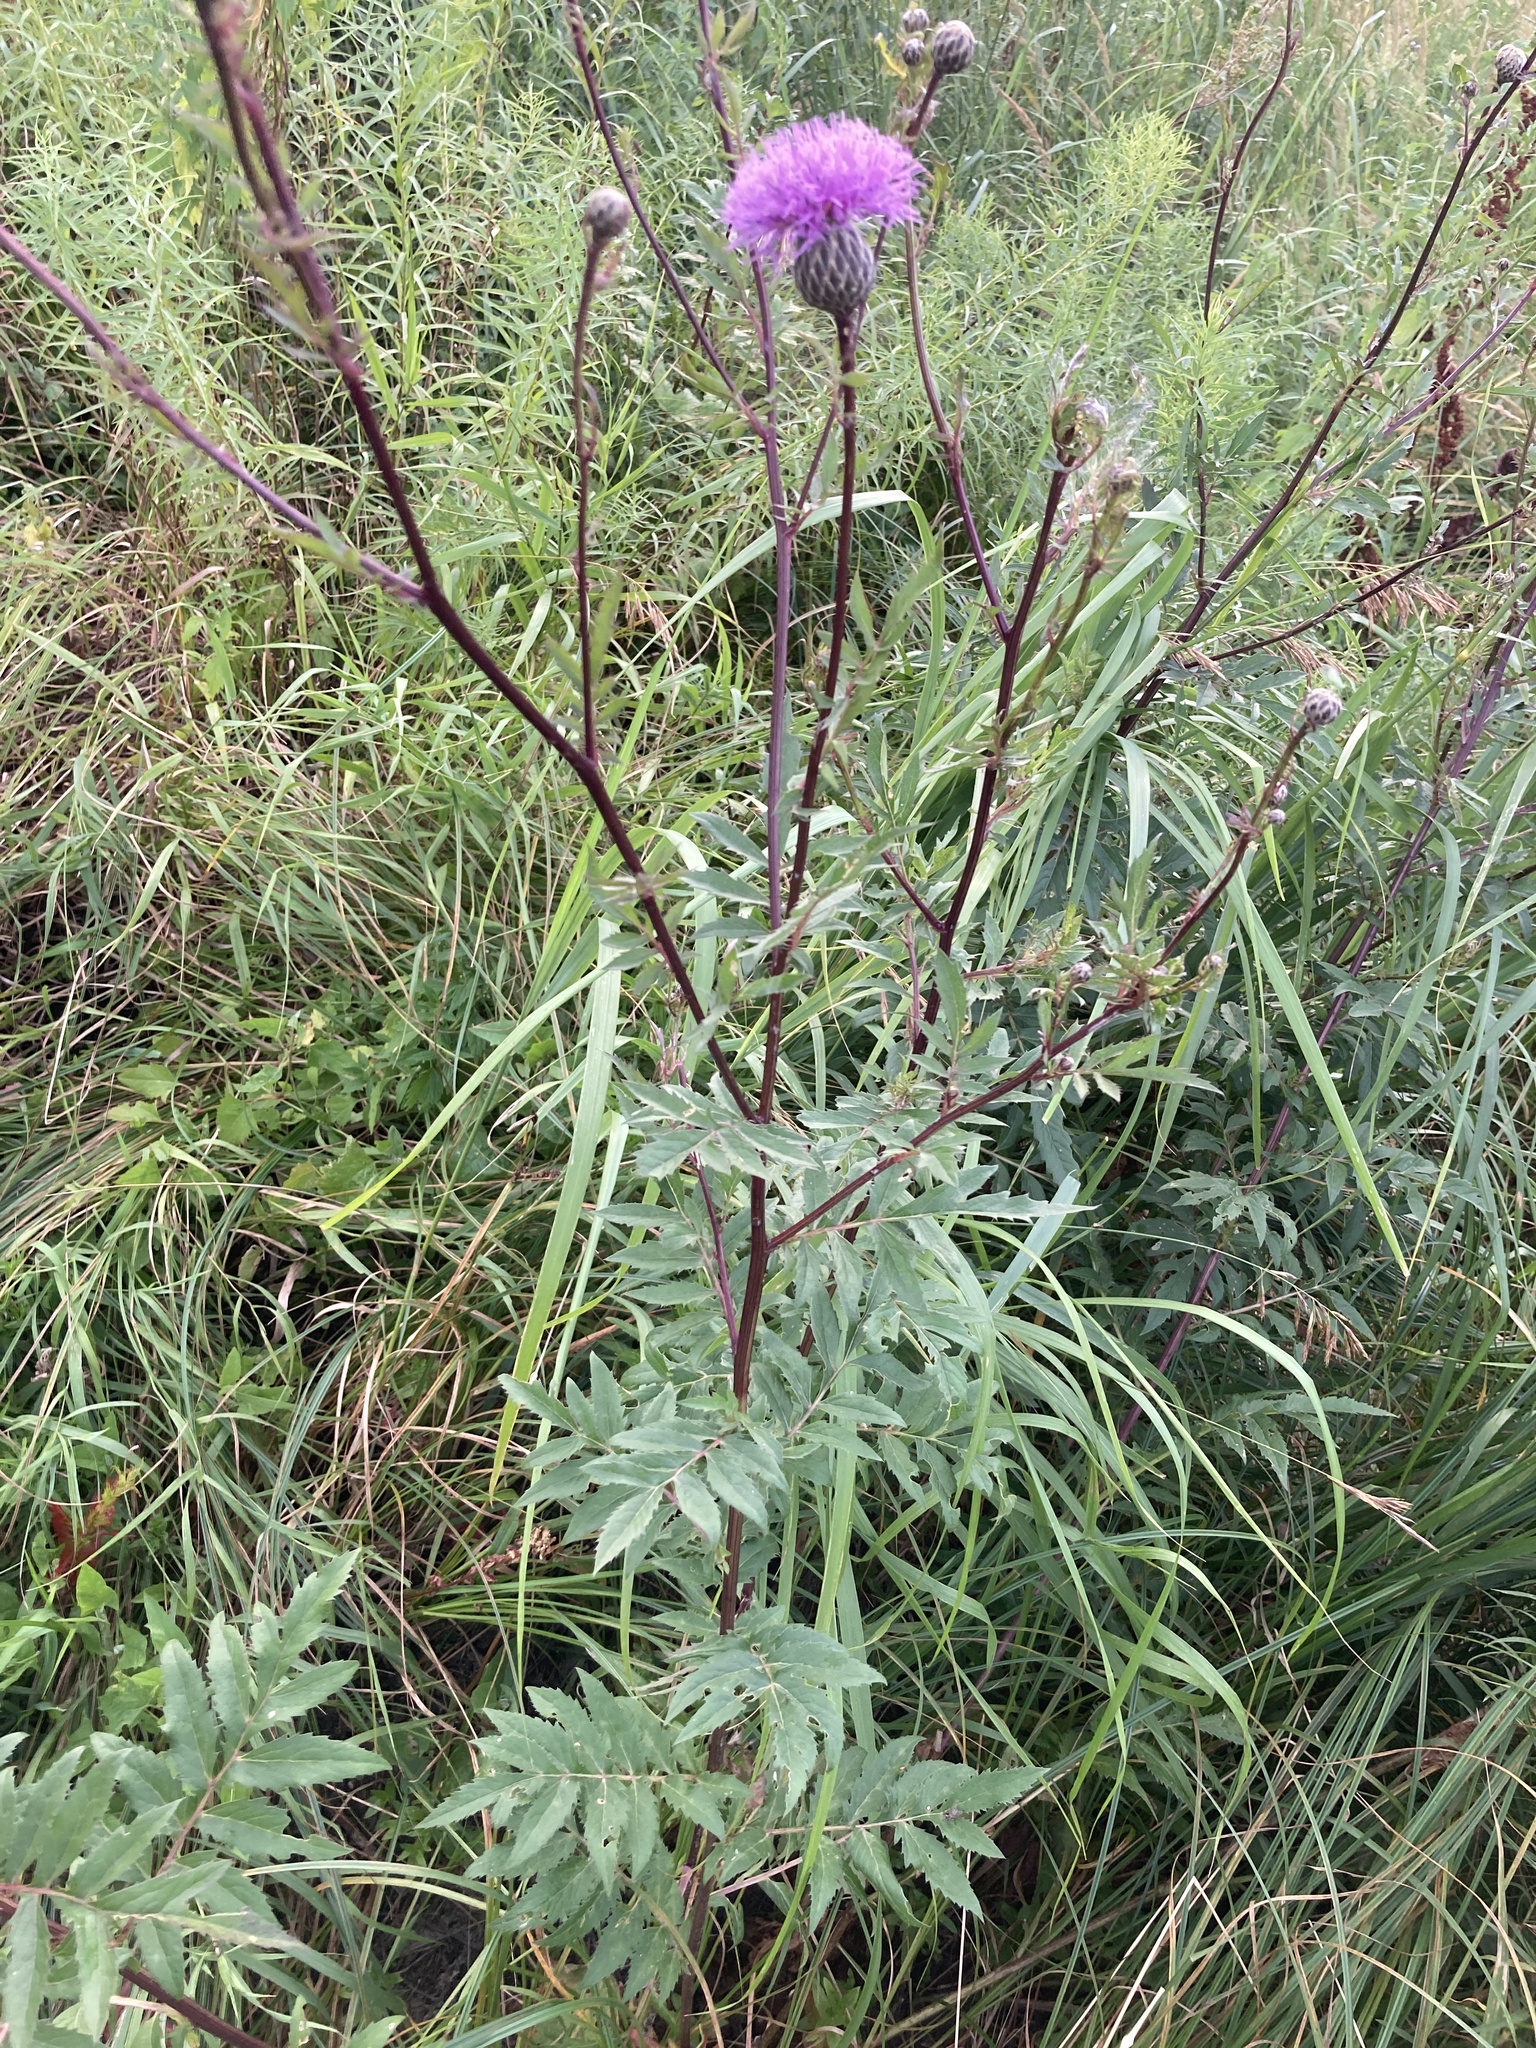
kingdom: Plantae
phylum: Tracheophyta
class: Magnoliopsida
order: Asterales
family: Asteraceae
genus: Serratula
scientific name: Serratula coronata
